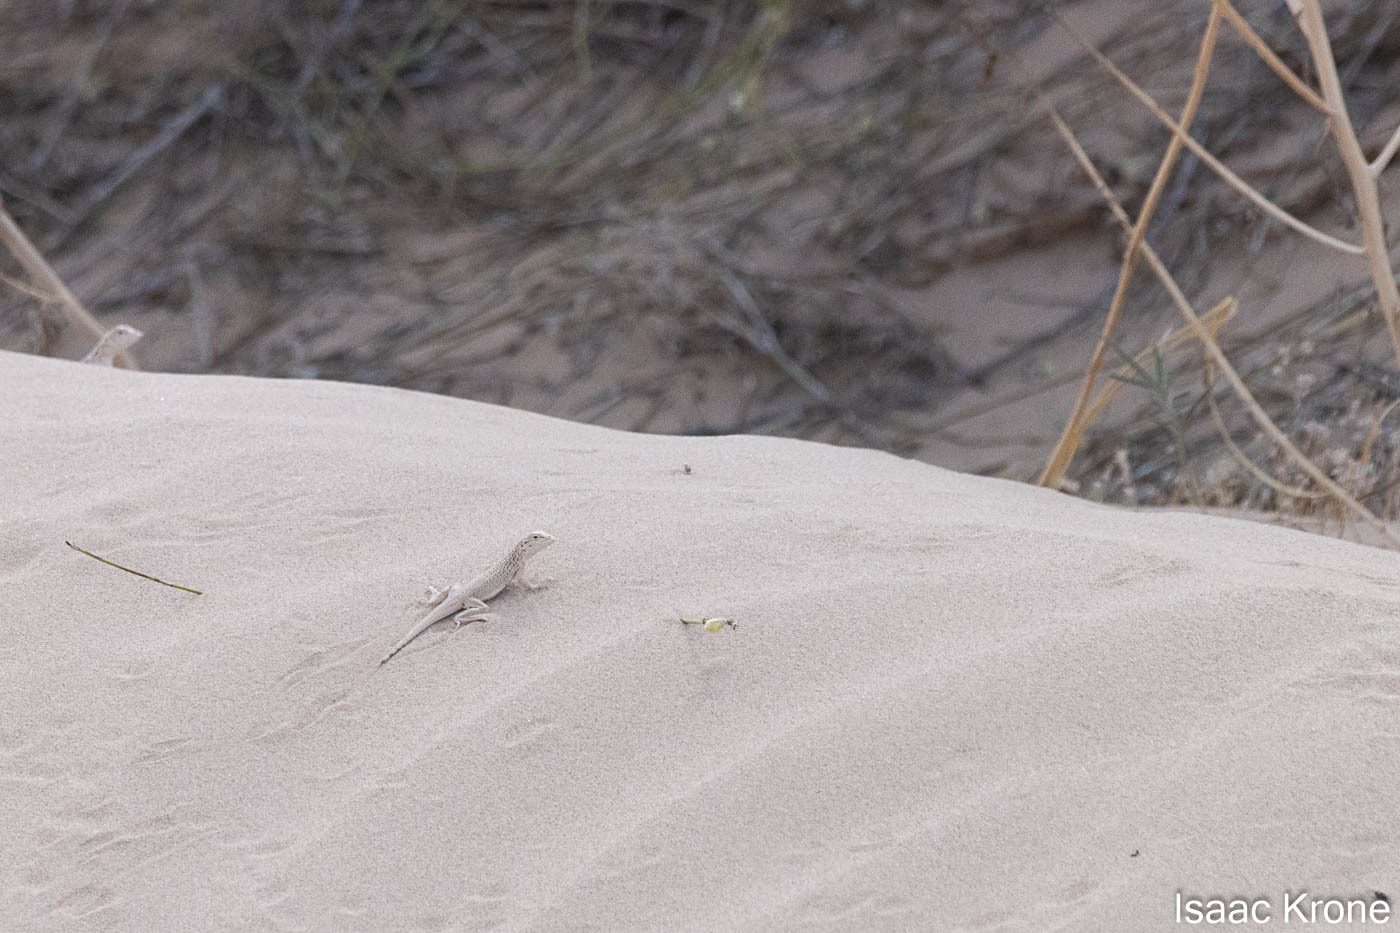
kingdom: Animalia
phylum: Chordata
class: Squamata
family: Phrynosomatidae
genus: Uma
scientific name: Uma notata
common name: Colorado desert fringe-toed lizard
